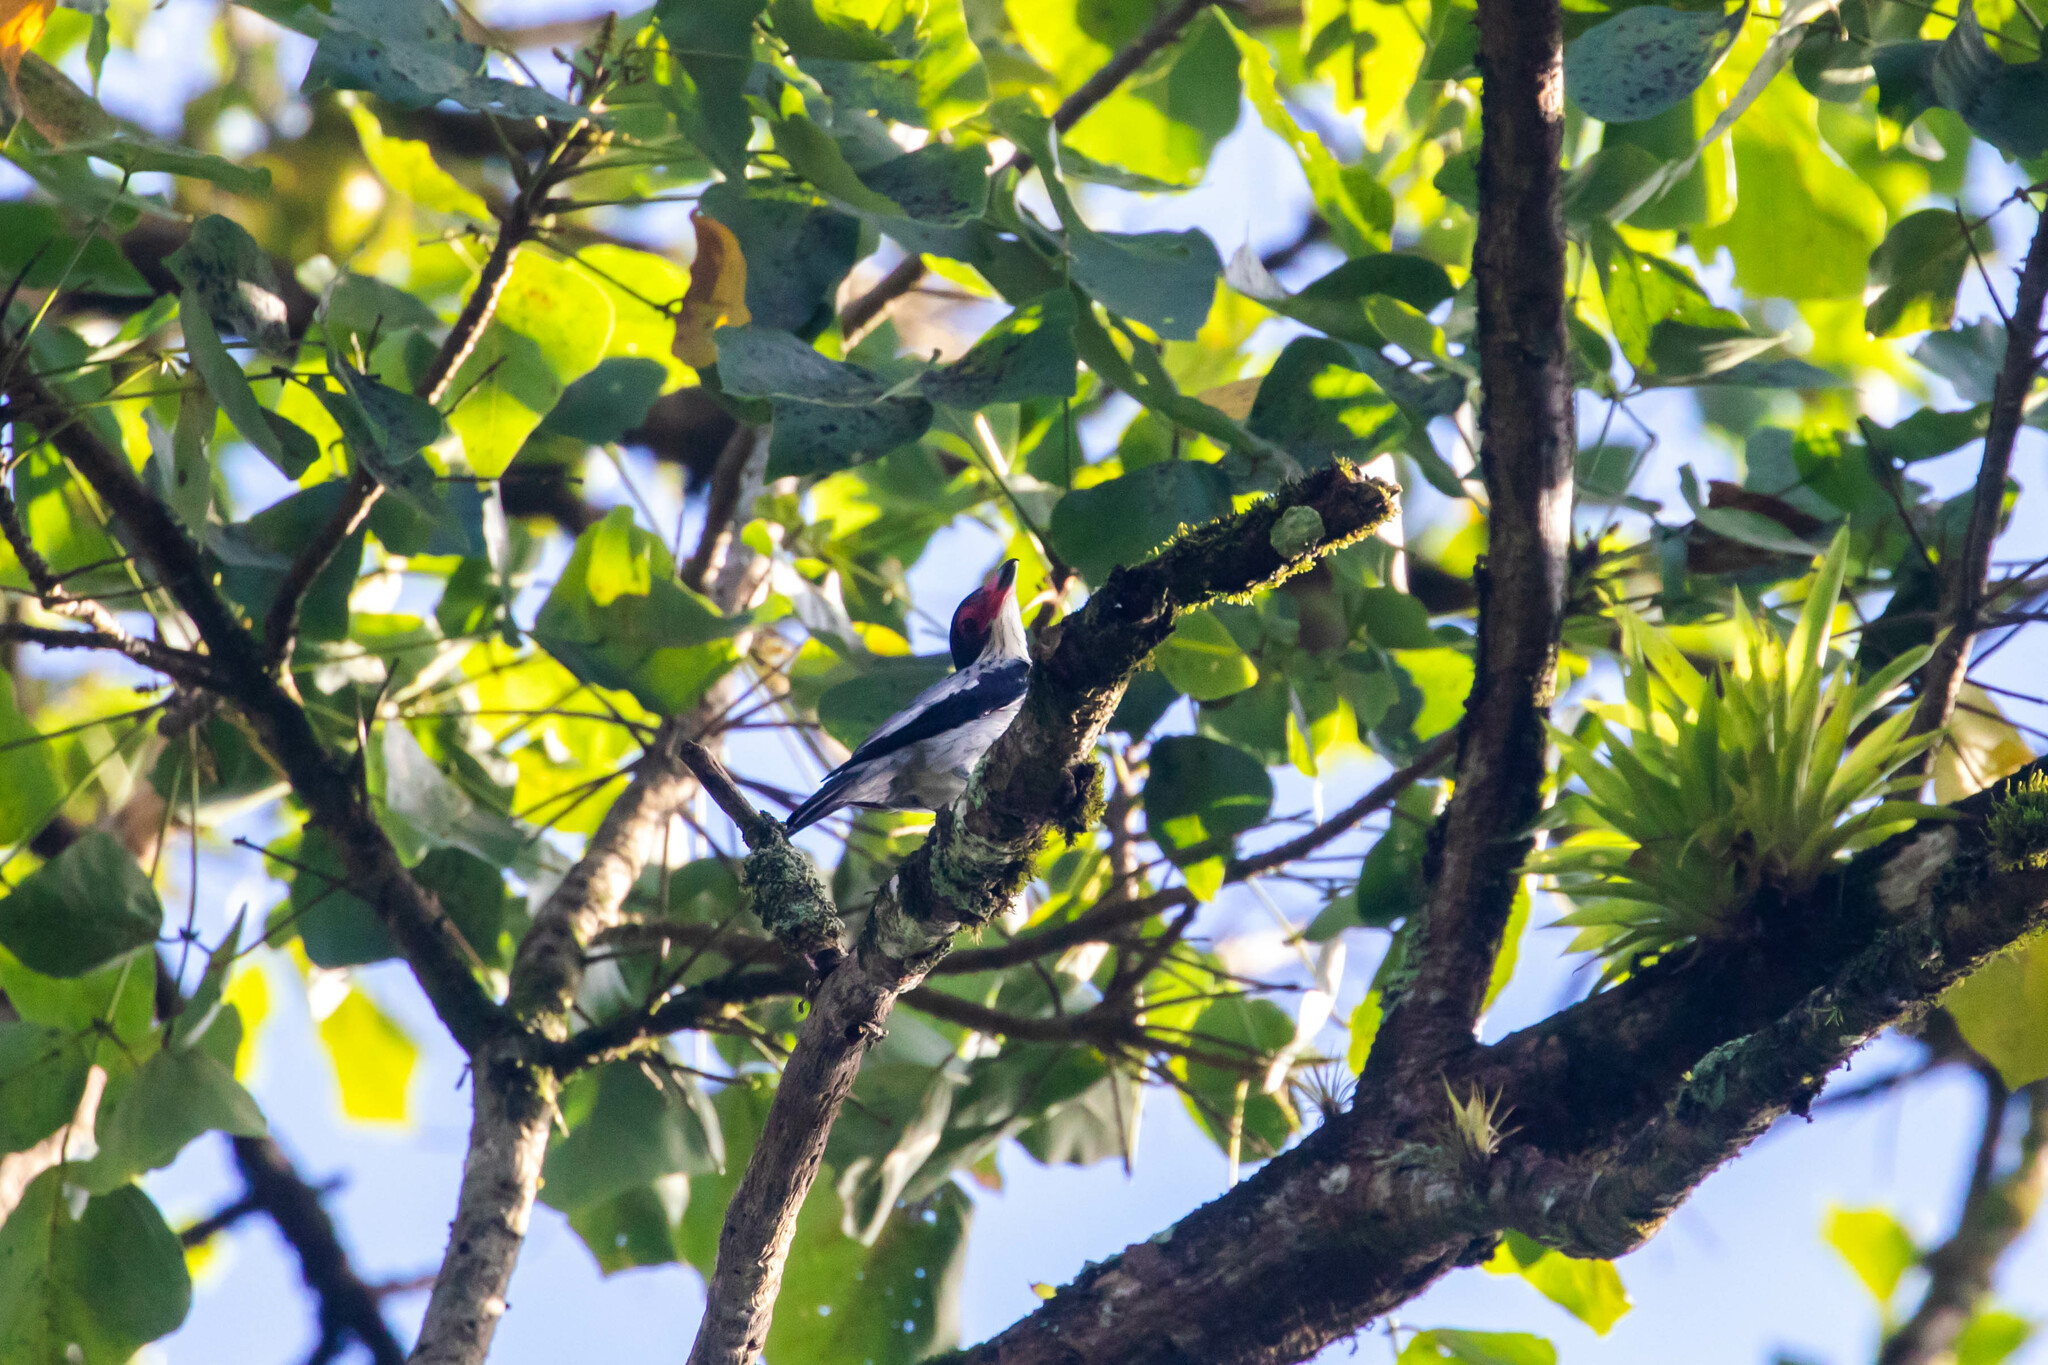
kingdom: Animalia
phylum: Chordata
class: Aves
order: Passeriformes
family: Cotingidae
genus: Tityra
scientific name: Tityra cayana
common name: Black-tailed tityra
